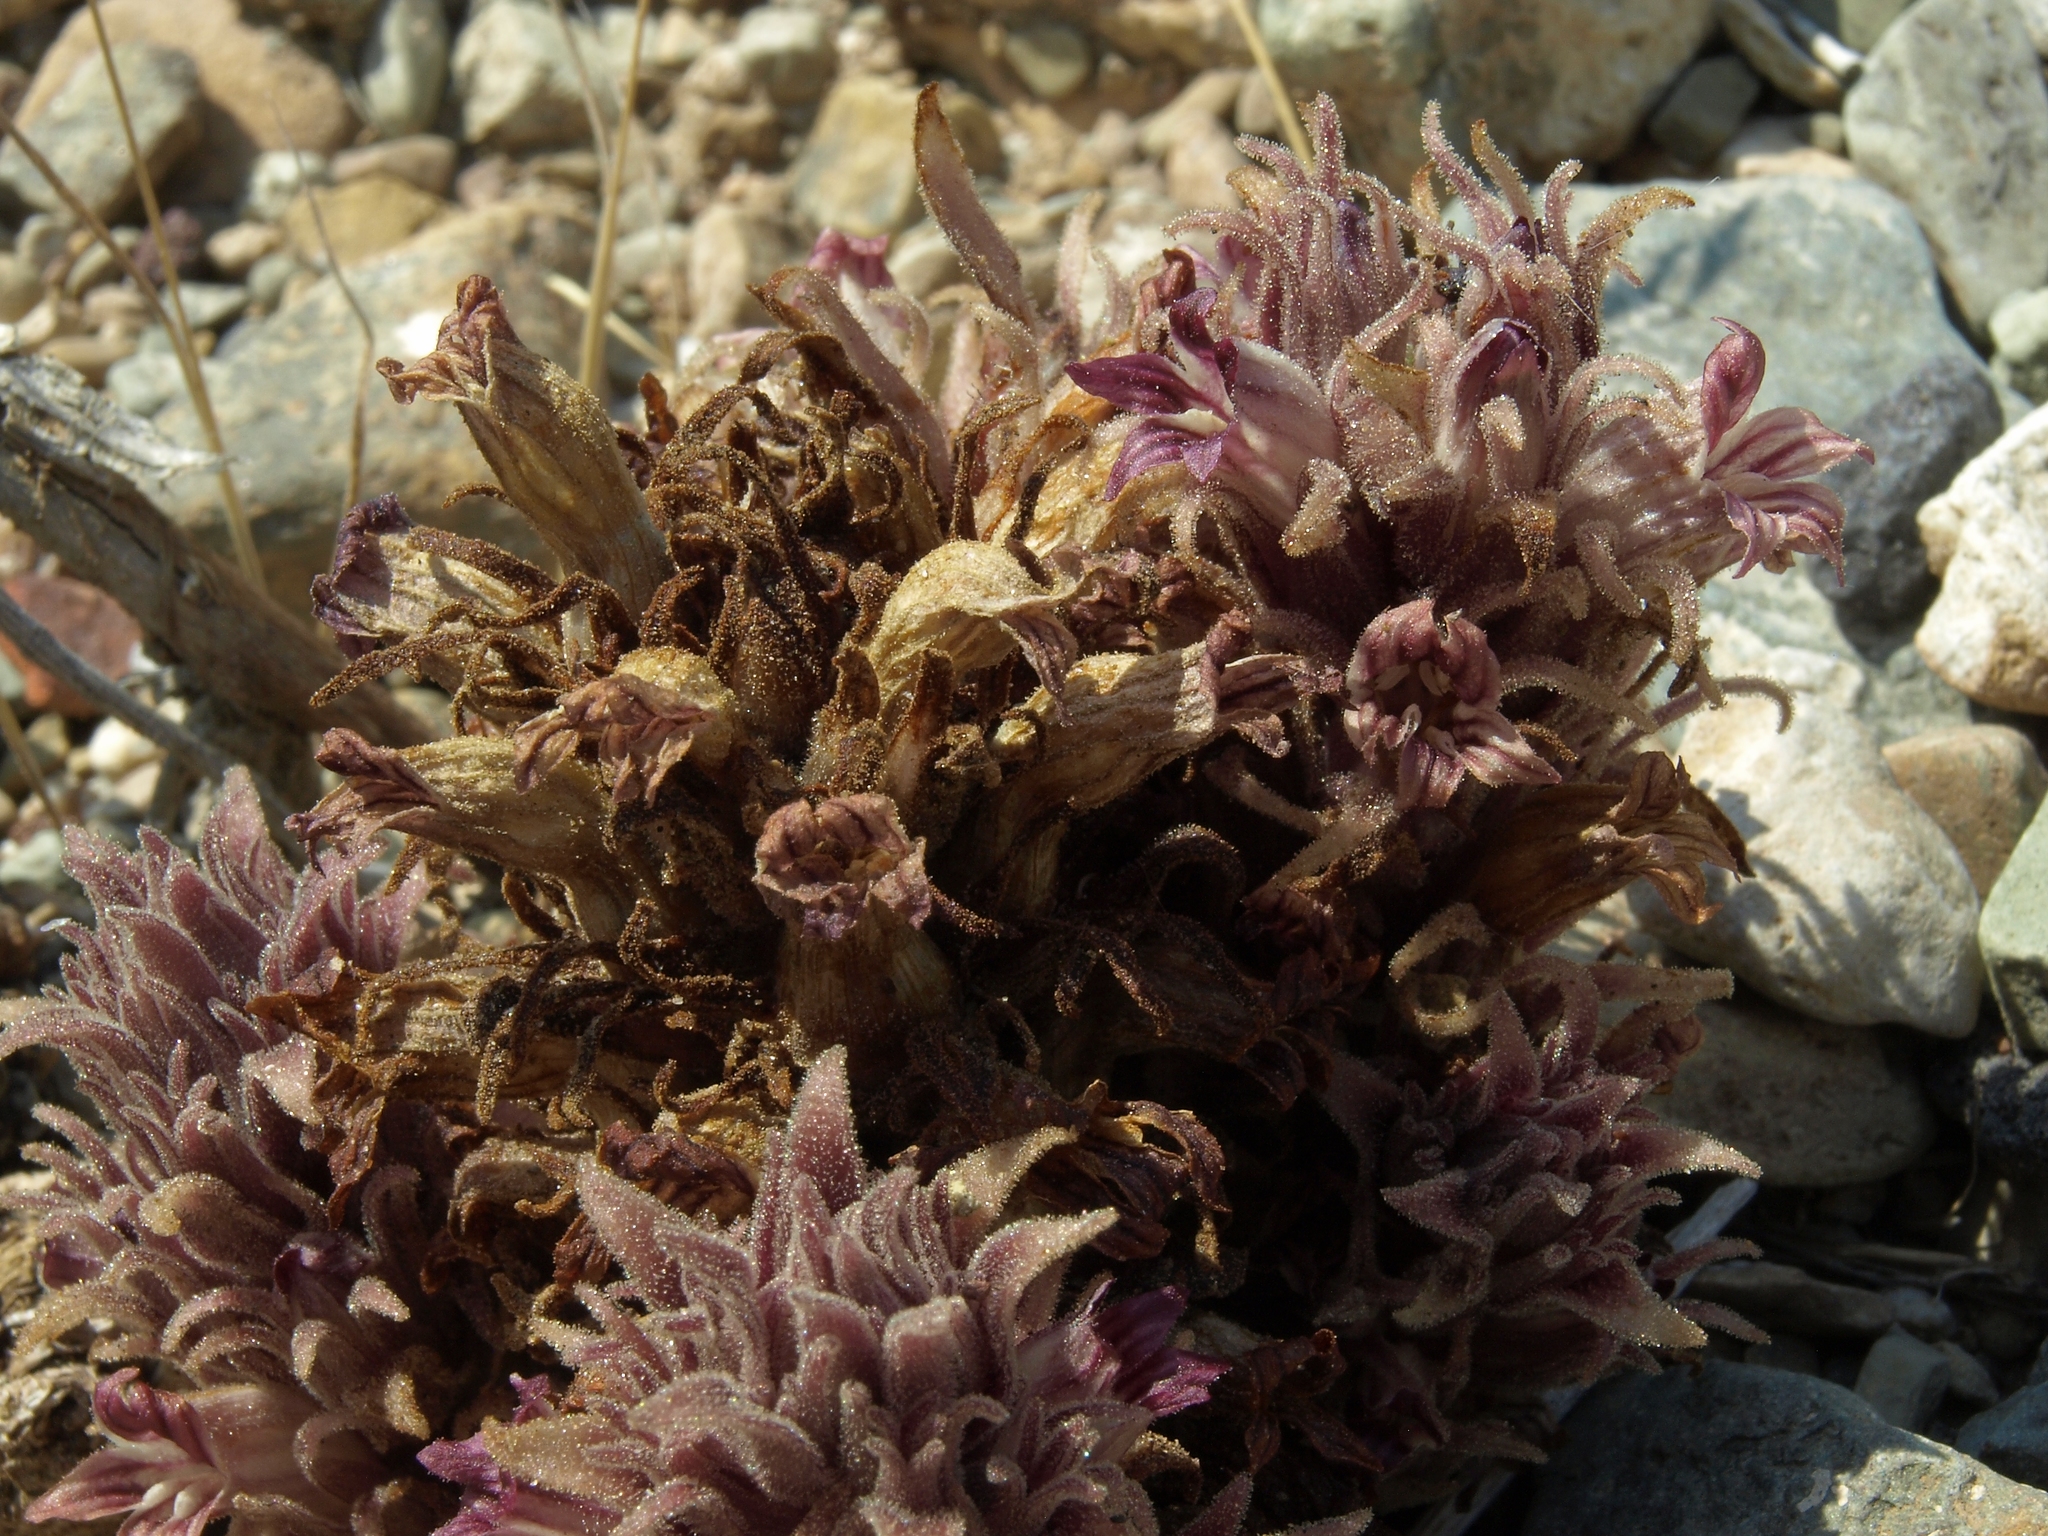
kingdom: Plantae
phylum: Tracheophyta
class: Magnoliopsida
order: Lamiales
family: Orobanchaceae
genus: Aphyllon
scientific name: Aphyllon parishii
